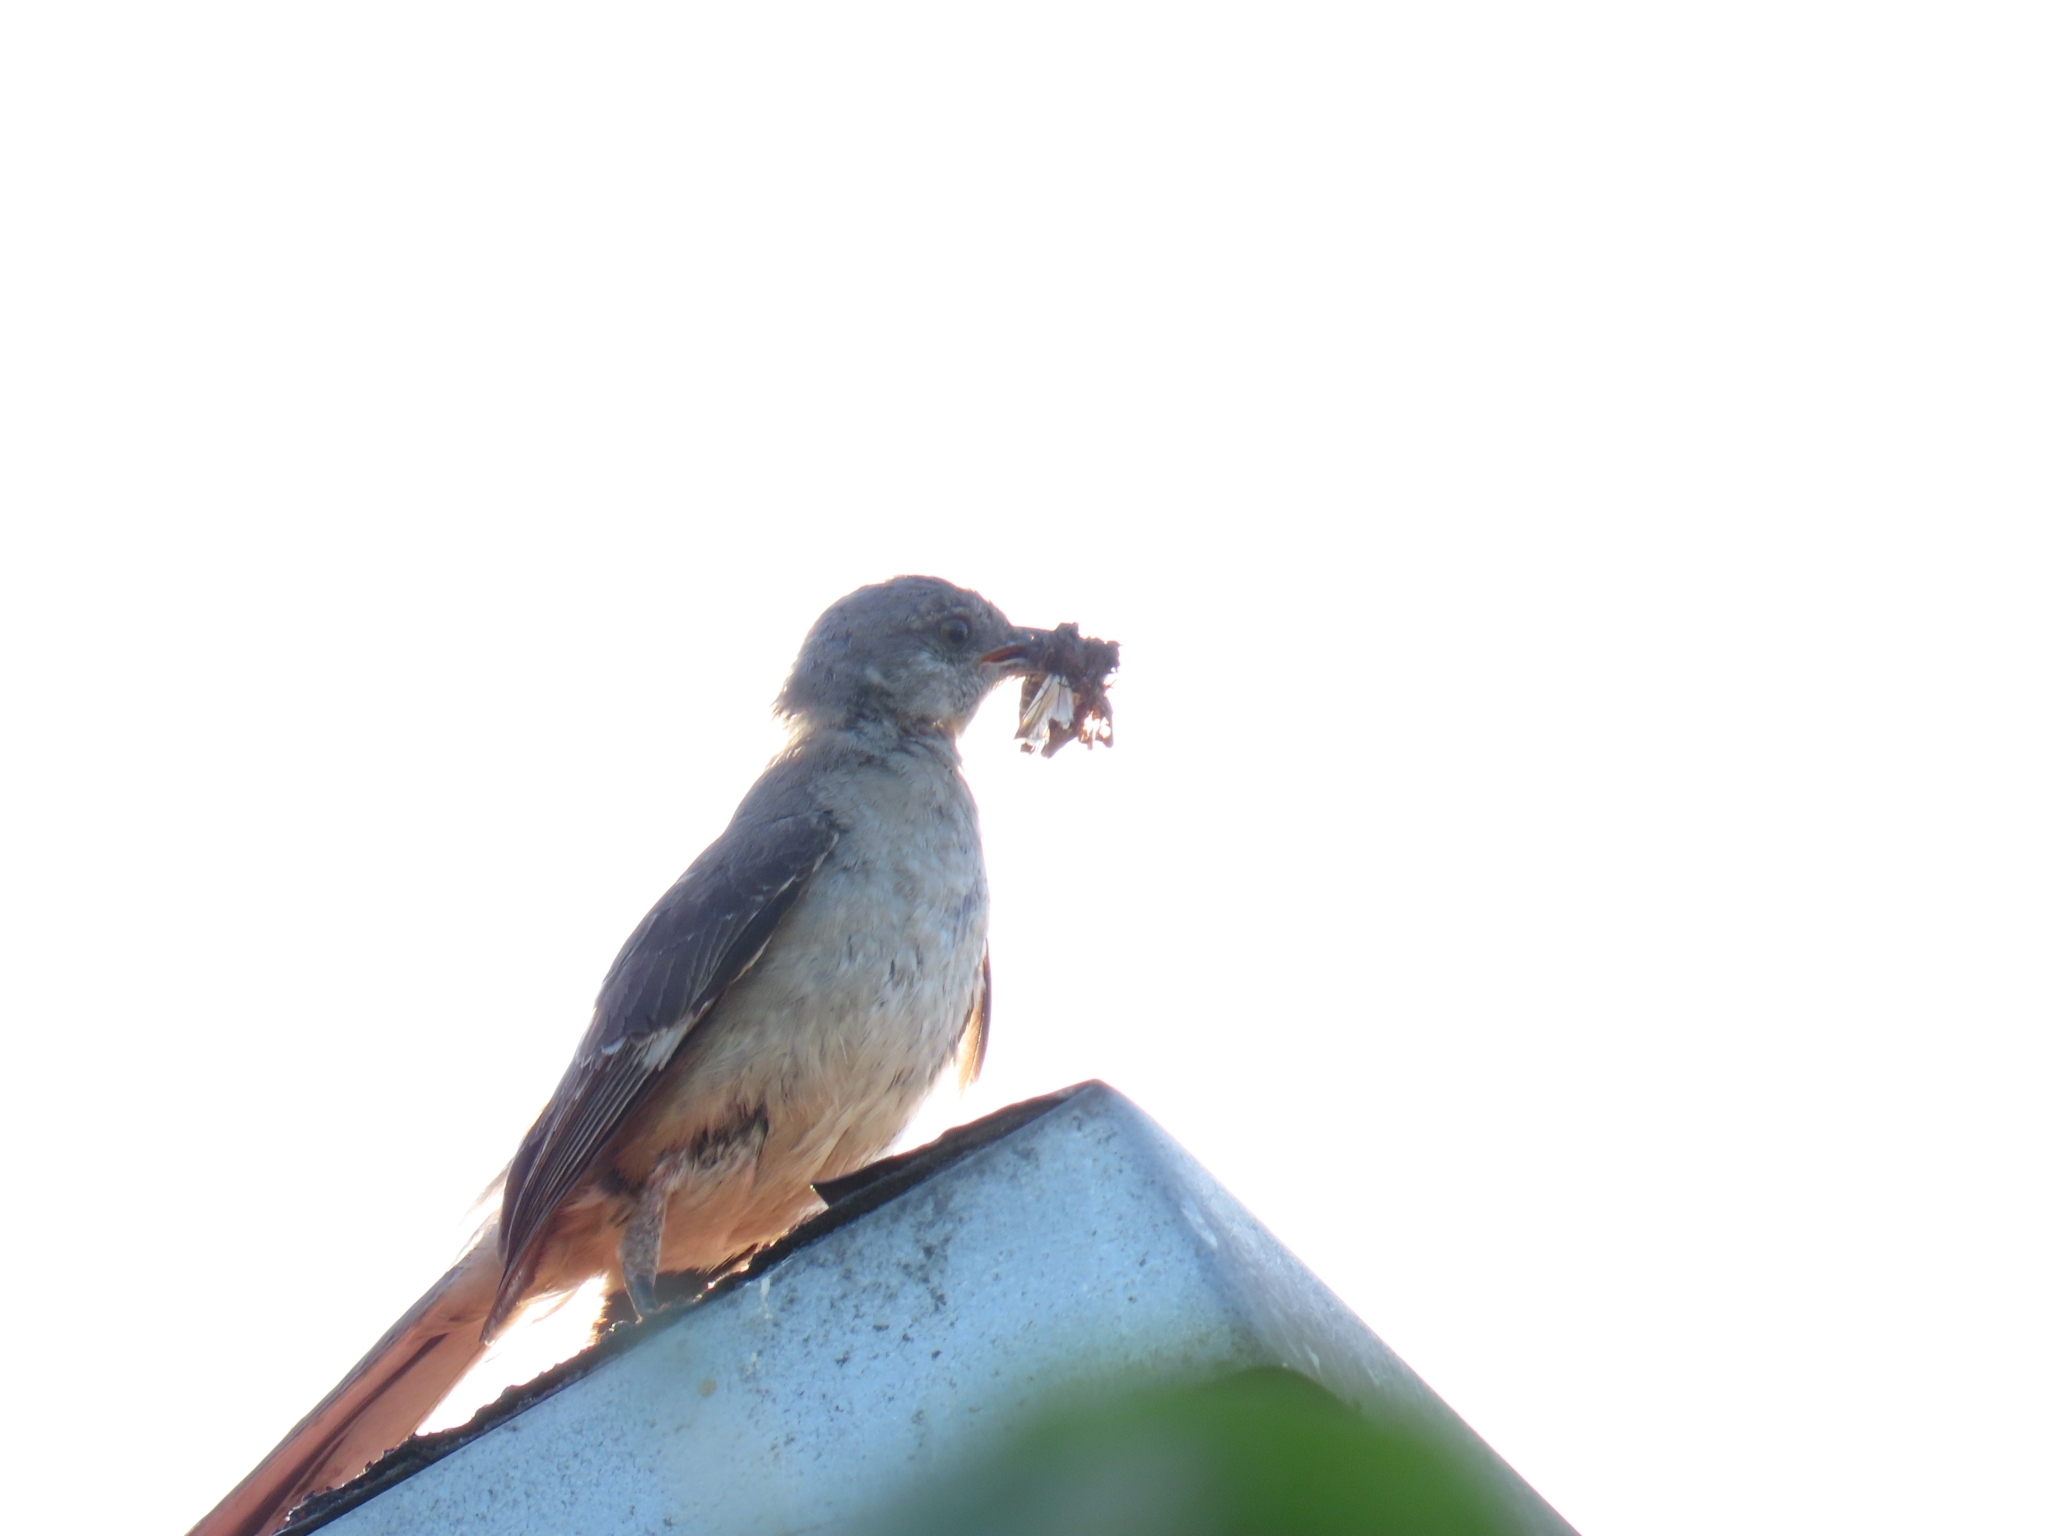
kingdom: Animalia
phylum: Chordata
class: Aves
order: Passeriformes
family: Mimidae
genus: Mimus
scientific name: Mimus polyglottos
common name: Northern mockingbird
